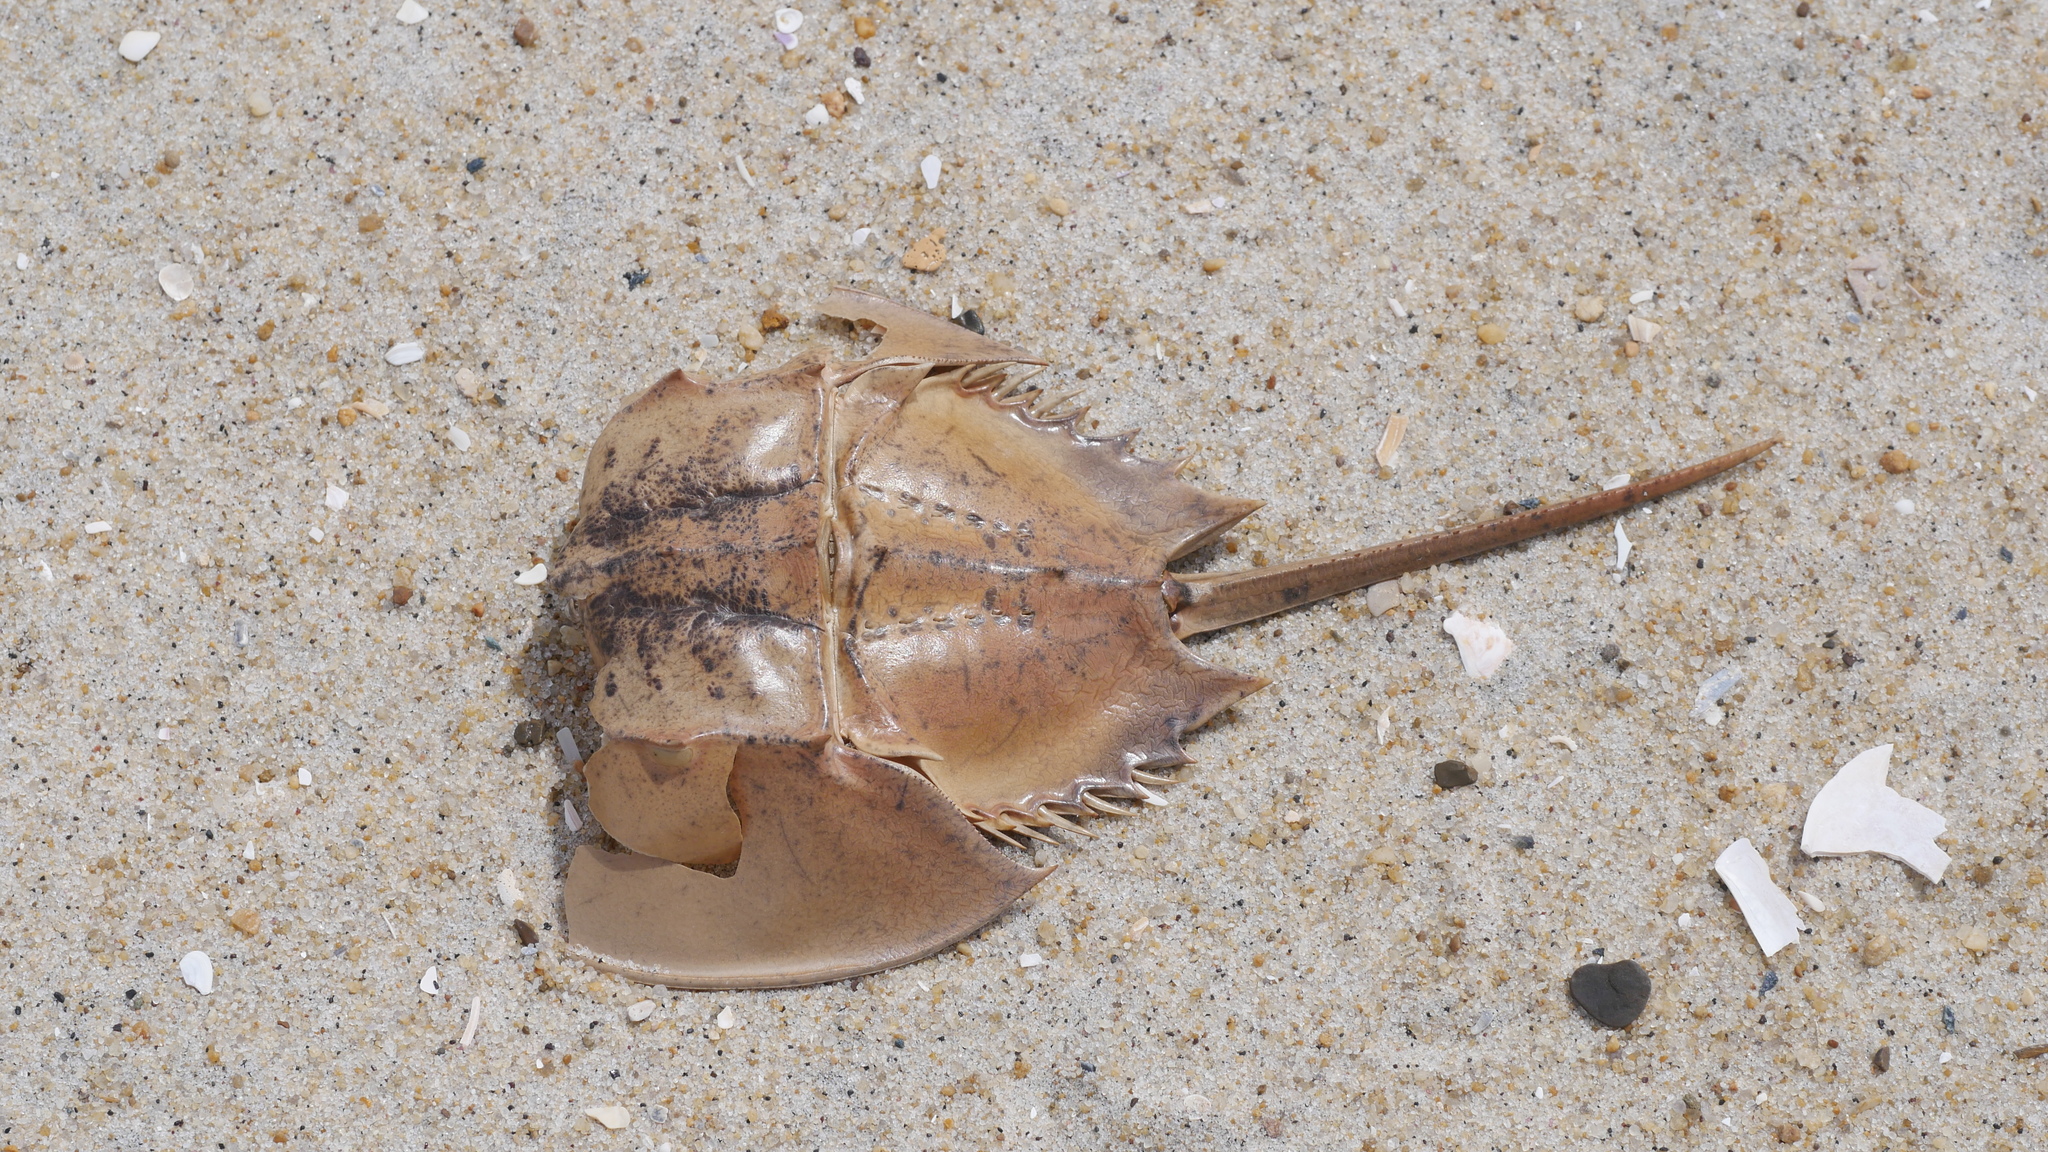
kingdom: Animalia
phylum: Arthropoda
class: Merostomata
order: Xiphosurida
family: Limulidae
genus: Limulus
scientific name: Limulus polyphemus
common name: Horseshoe crab
